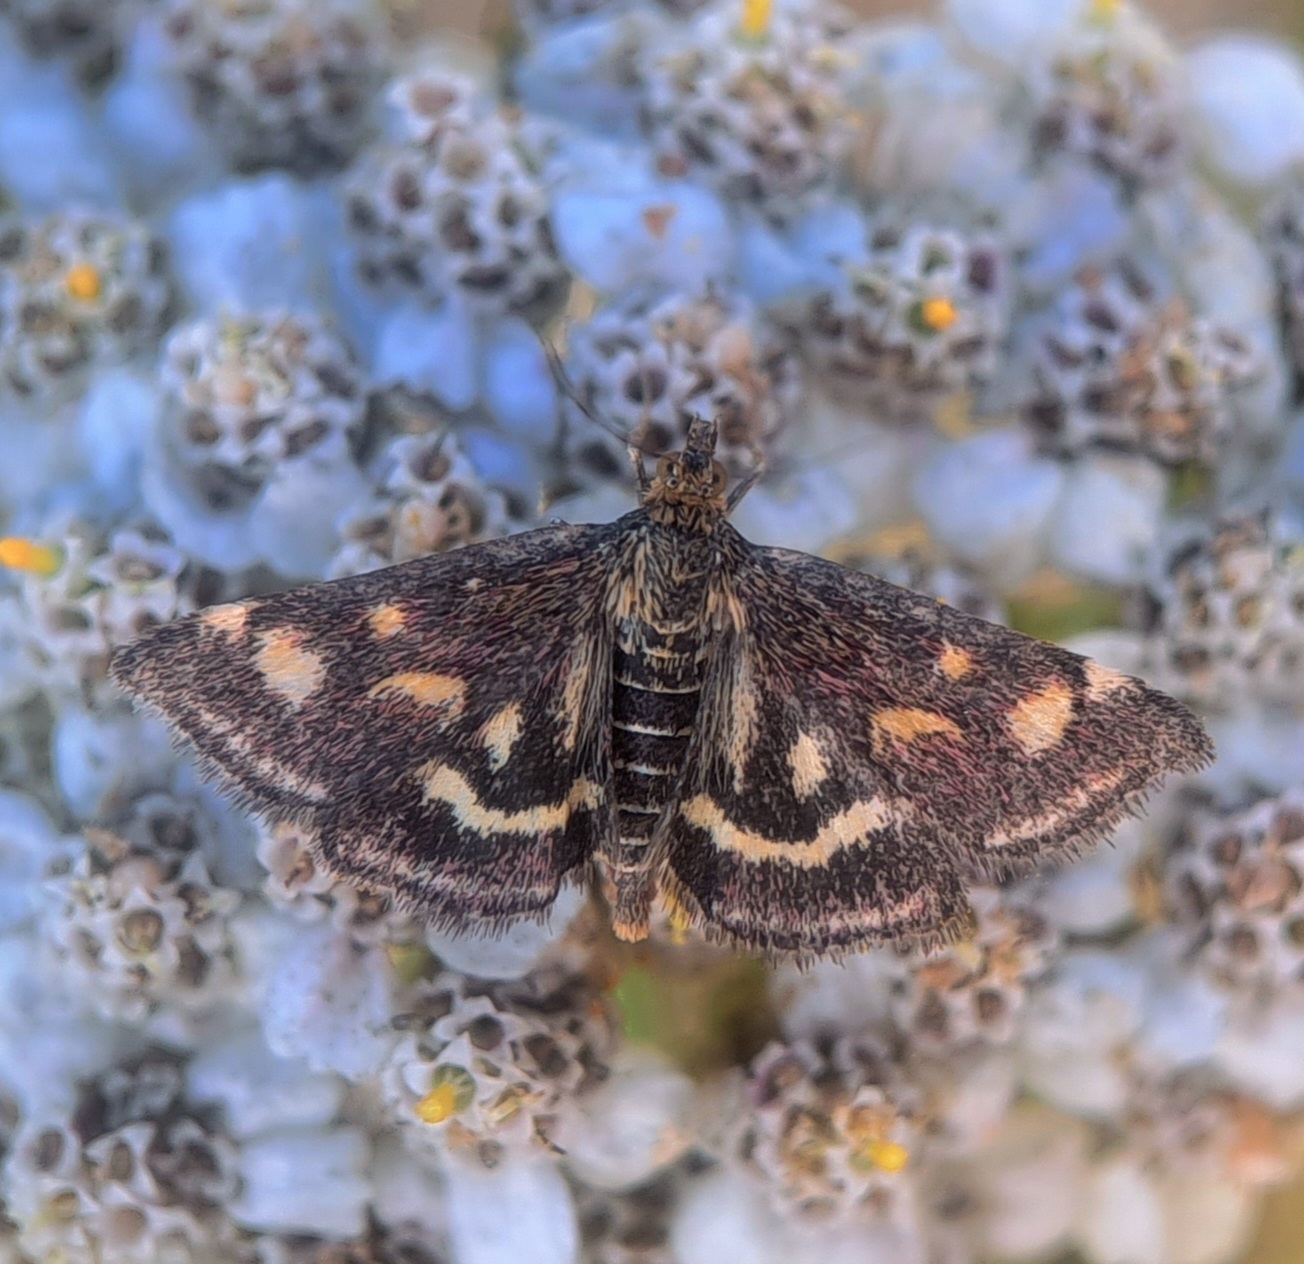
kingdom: Animalia
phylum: Arthropoda
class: Insecta
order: Lepidoptera
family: Crambidae
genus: Pyrausta
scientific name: Pyrausta purpuralis
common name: Common purple & gold
